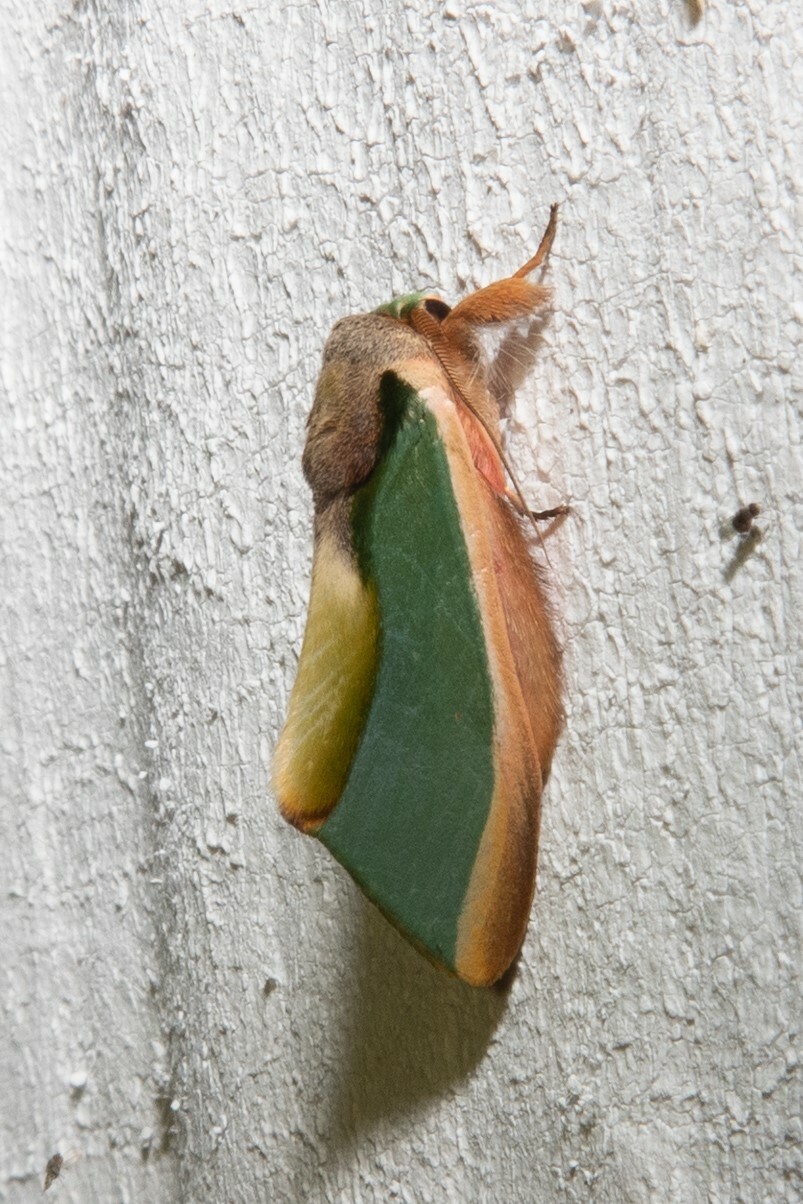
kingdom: Animalia
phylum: Arthropoda
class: Insecta
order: Lepidoptera
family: Notodontidae
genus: Rosema
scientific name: Rosema apollinairei
